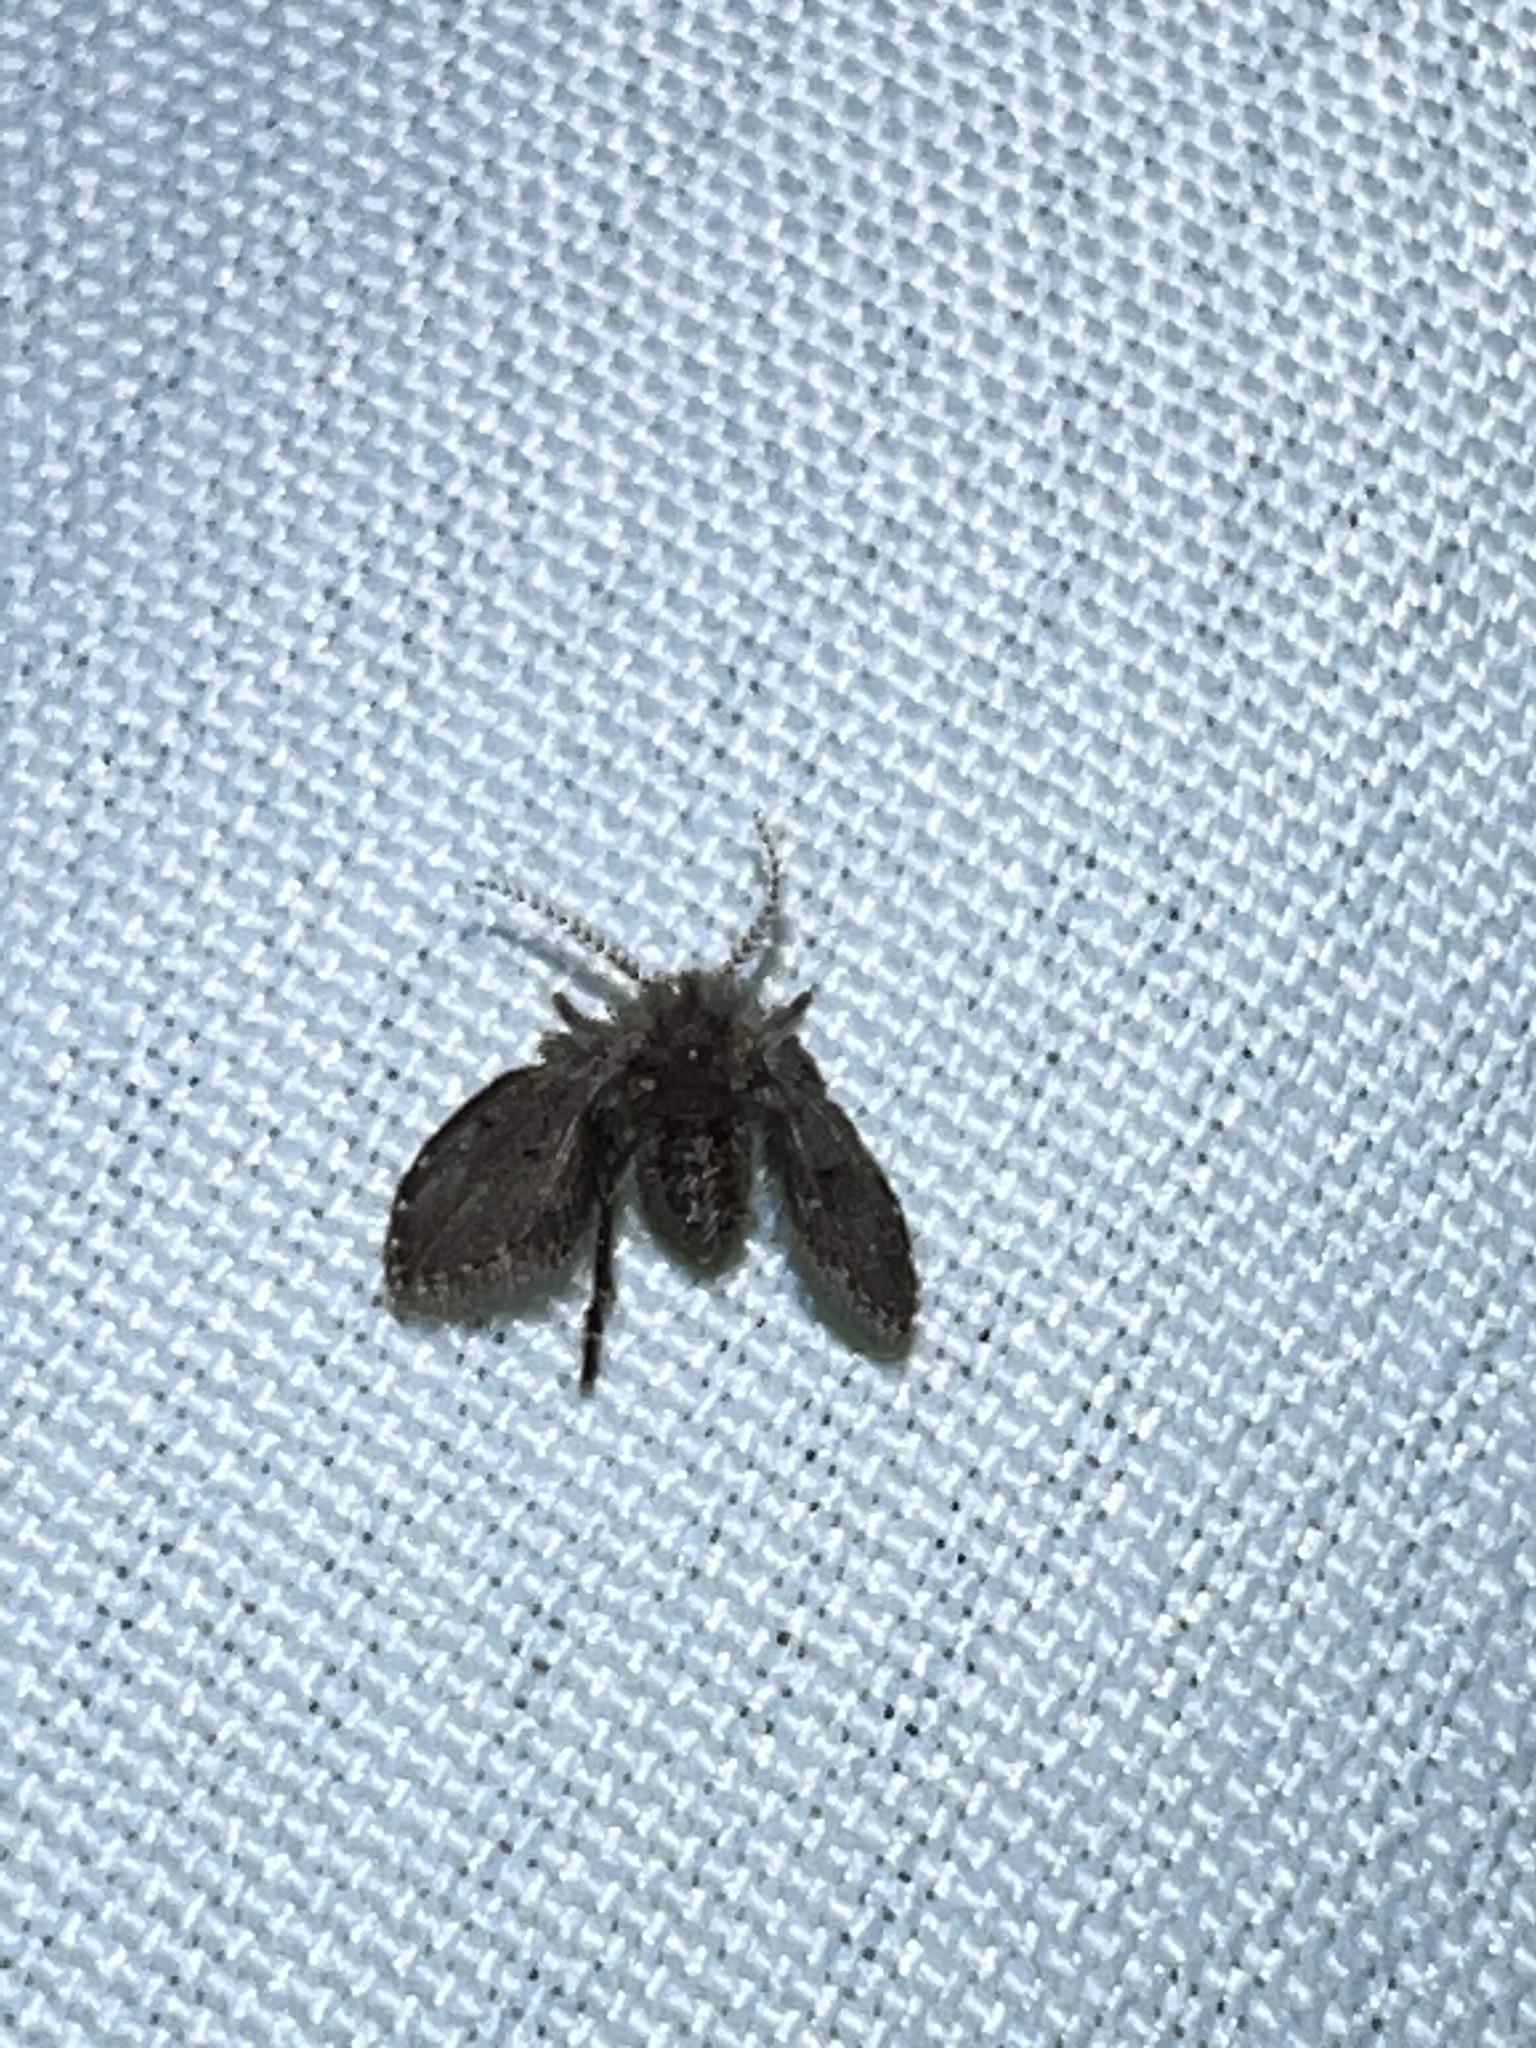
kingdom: Animalia
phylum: Arthropoda
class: Insecta
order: Diptera
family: Psychodidae
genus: Clogmia
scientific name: Clogmia albipunctatus
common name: White-spotted moth fly
